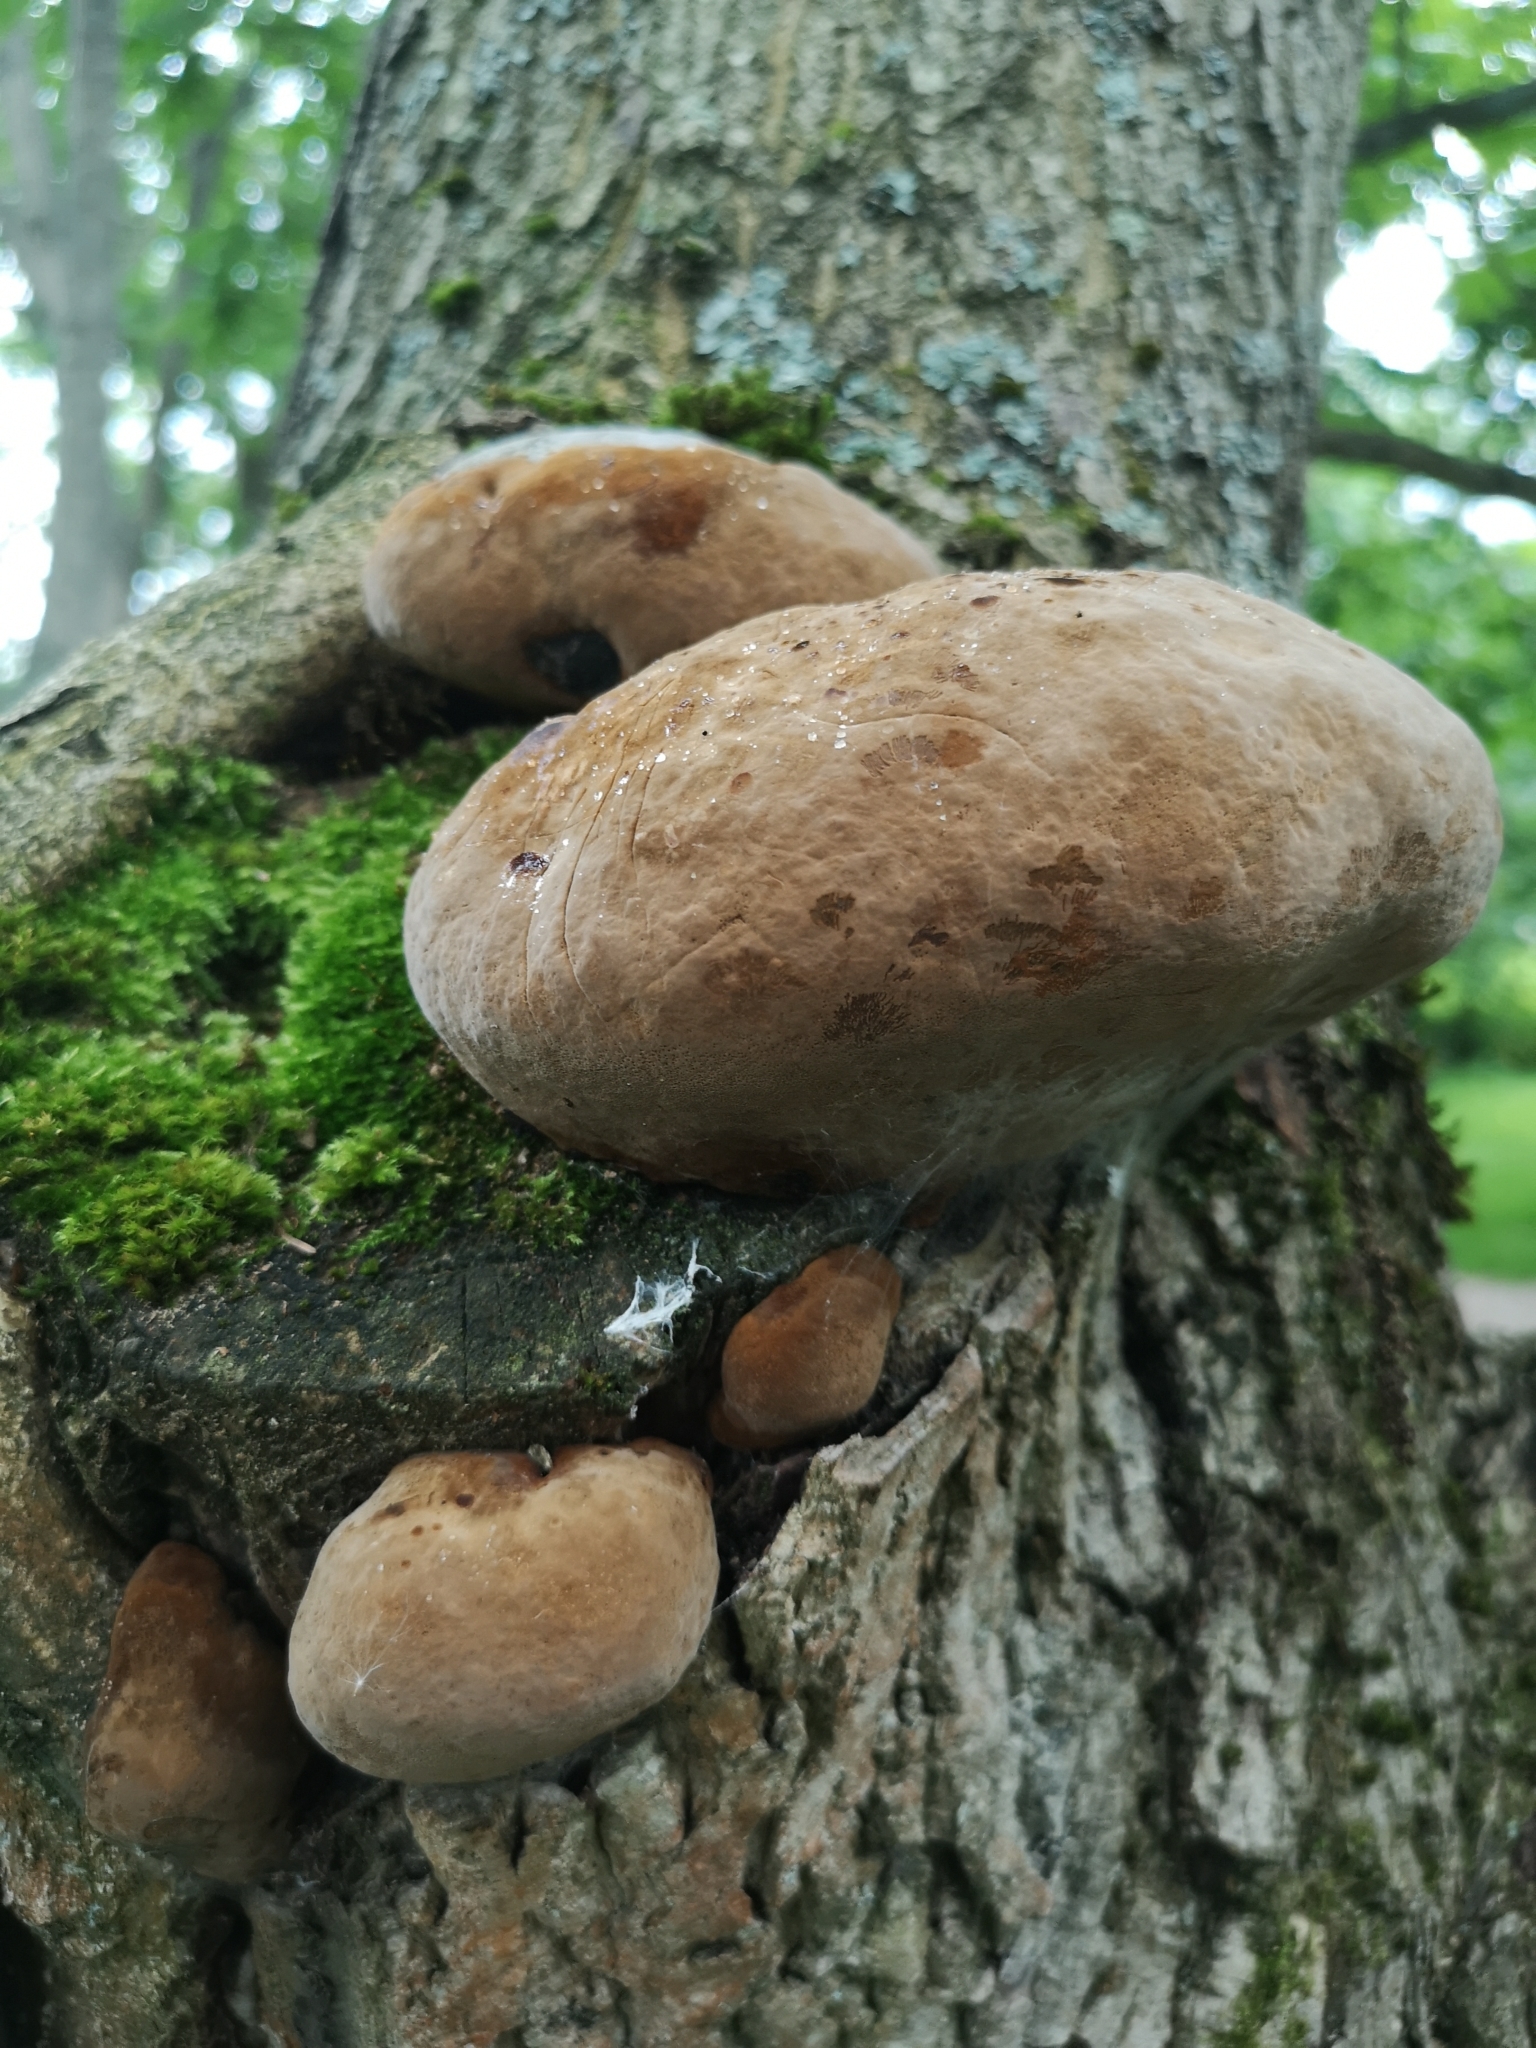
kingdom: Fungi
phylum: Basidiomycota
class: Agaricomycetes
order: Hymenochaetales
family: Hymenochaetaceae
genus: Phellinus
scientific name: Phellinus igniarius
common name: Willow bracket
